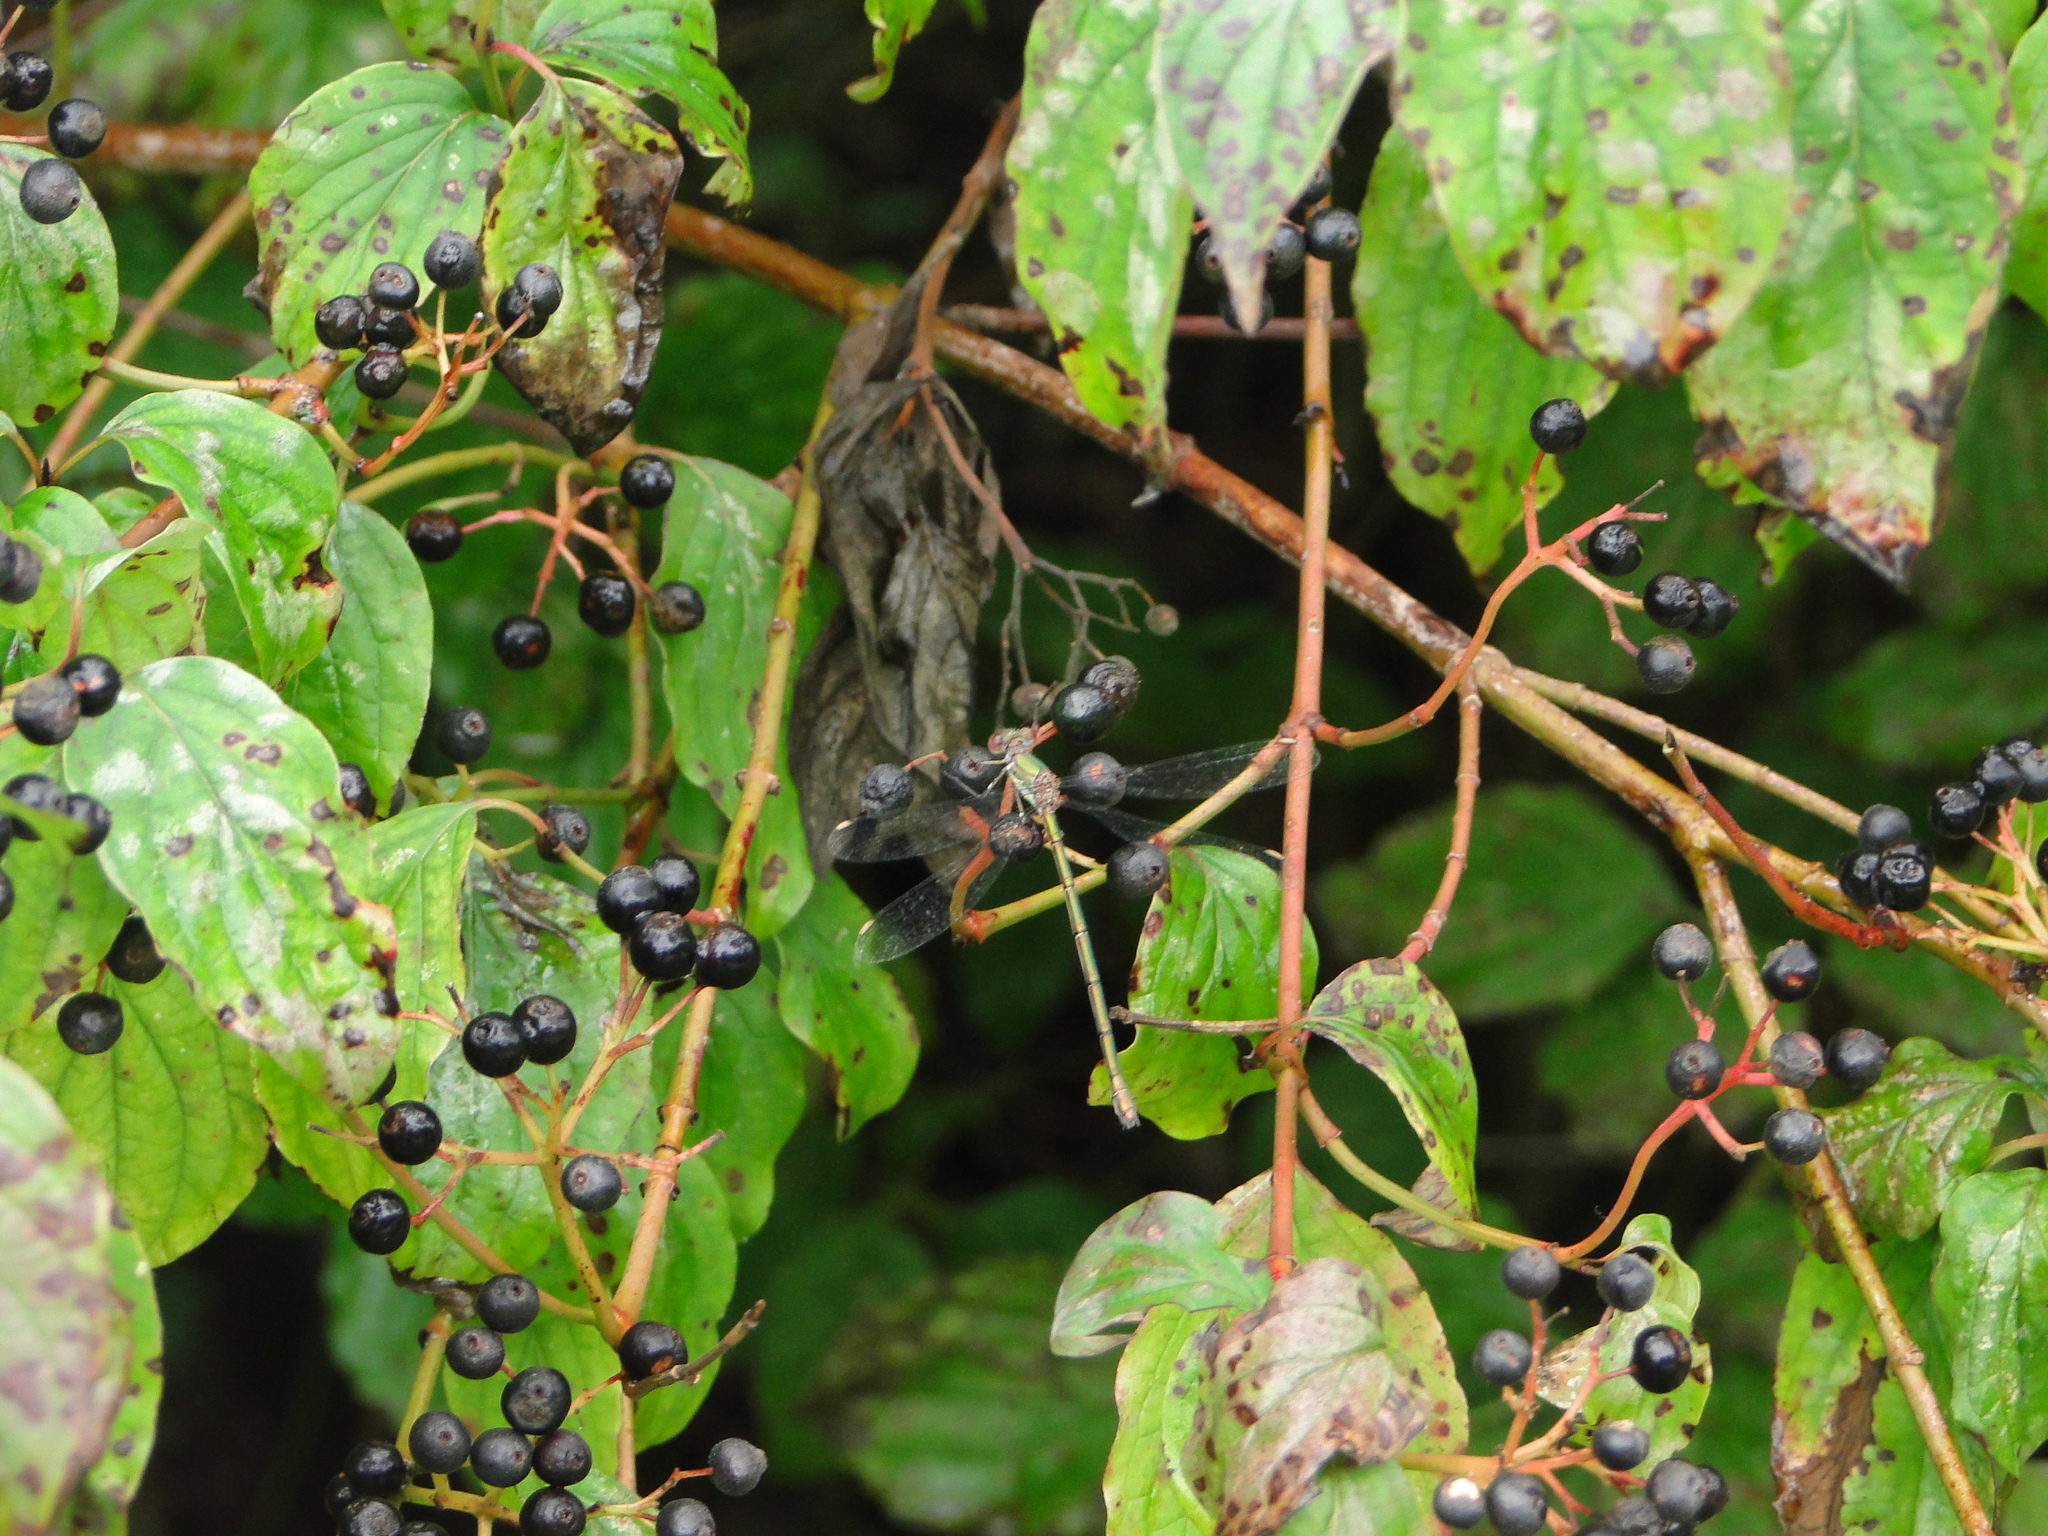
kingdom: Animalia
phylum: Arthropoda
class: Insecta
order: Odonata
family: Lestidae
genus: Chalcolestes
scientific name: Chalcolestes viridis
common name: Green emerald damselfly
